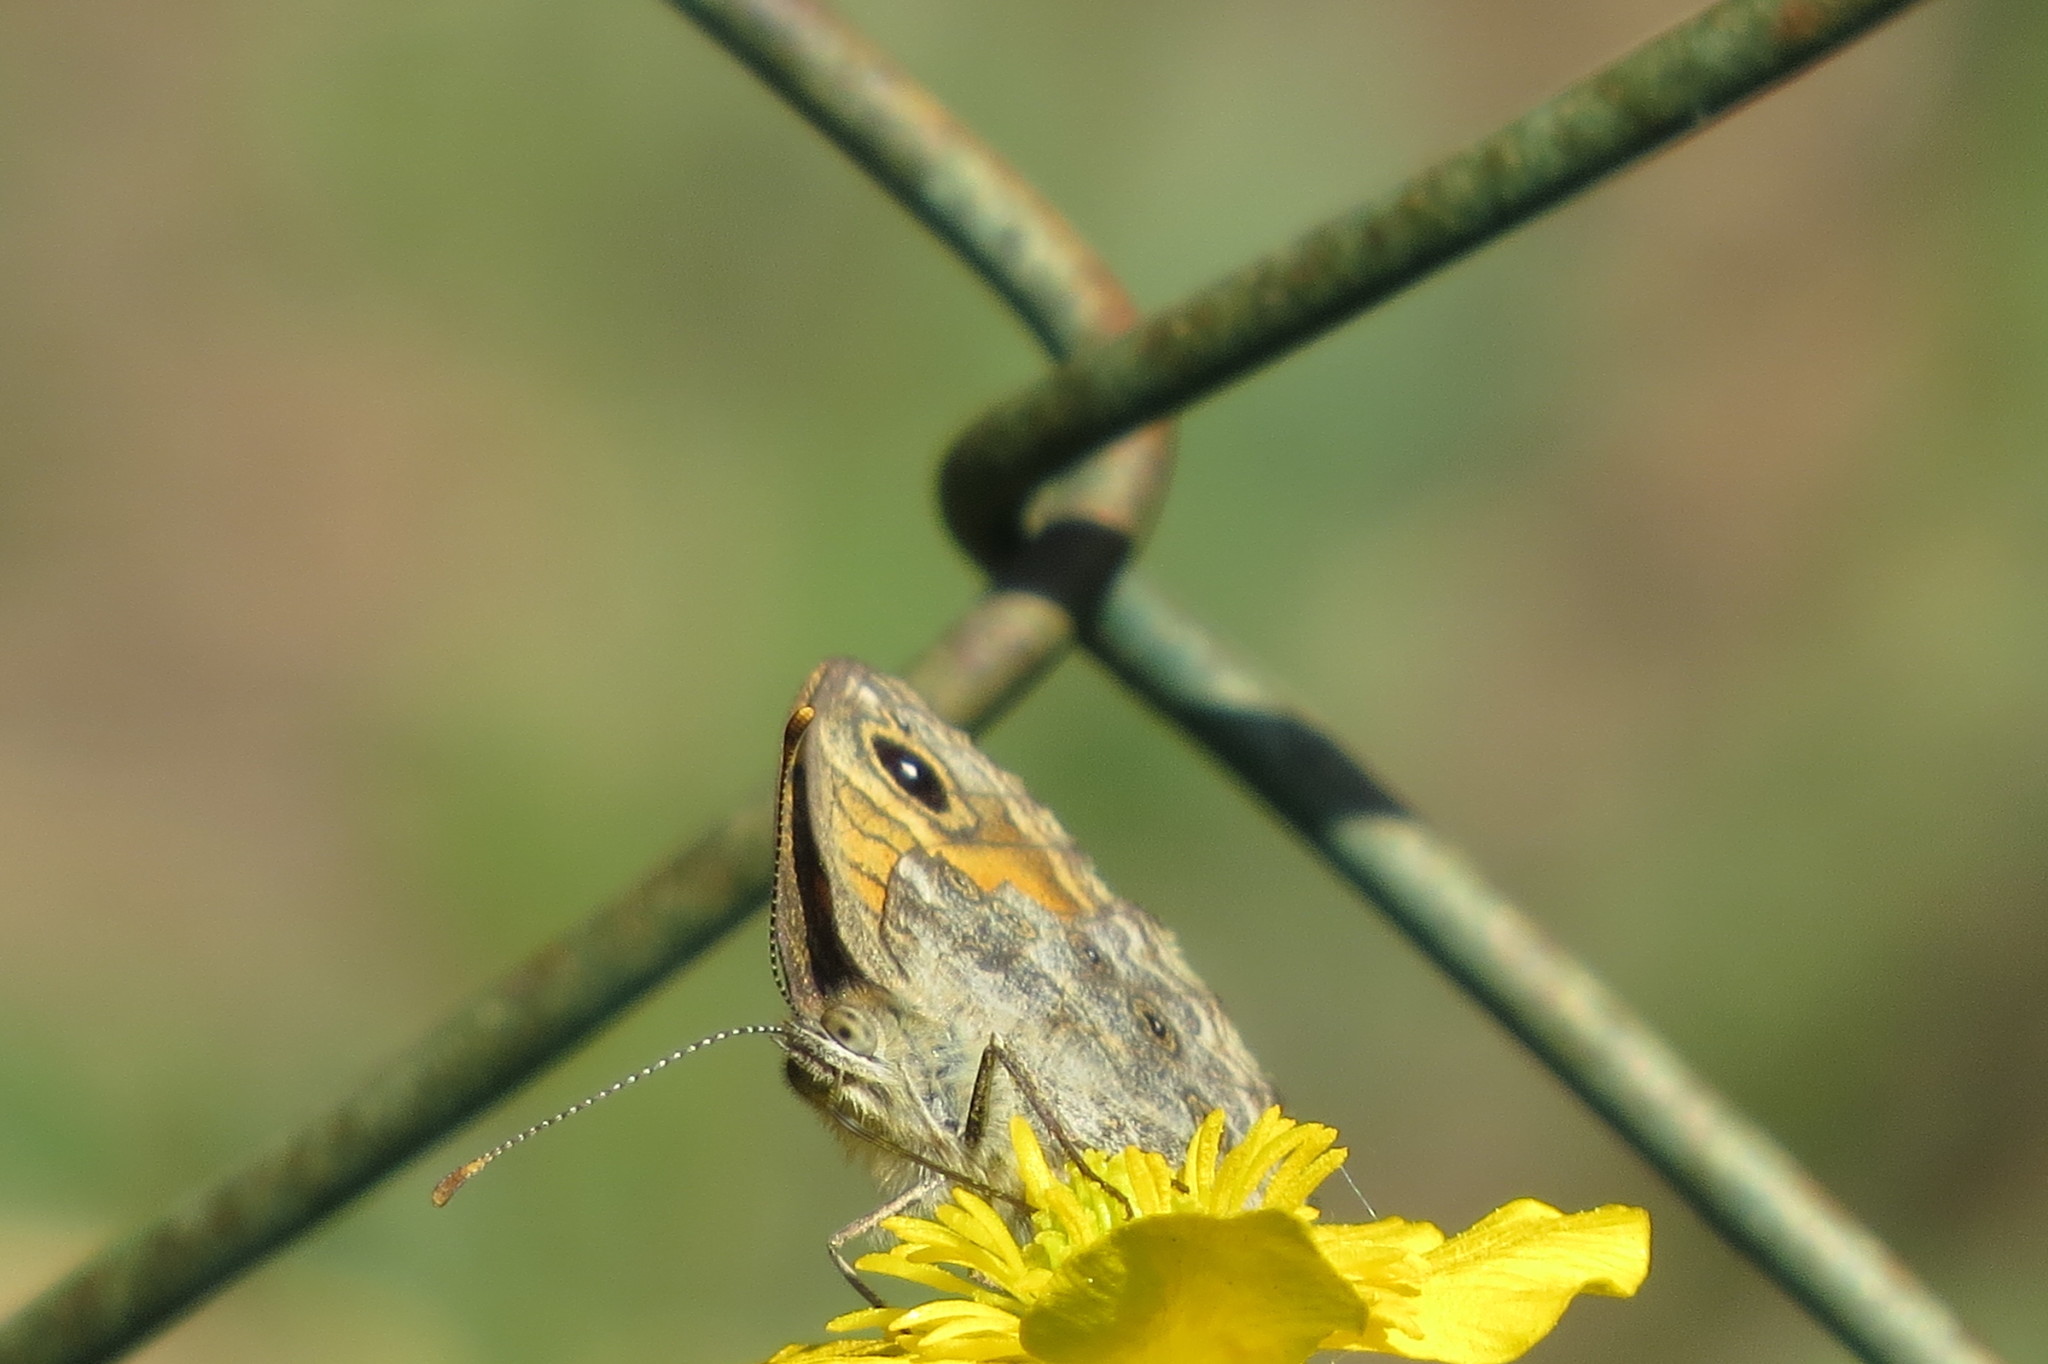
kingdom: Animalia
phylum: Arthropoda
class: Insecta
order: Lepidoptera
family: Nymphalidae
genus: Pararge
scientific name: Pararge Lasiommata megera
